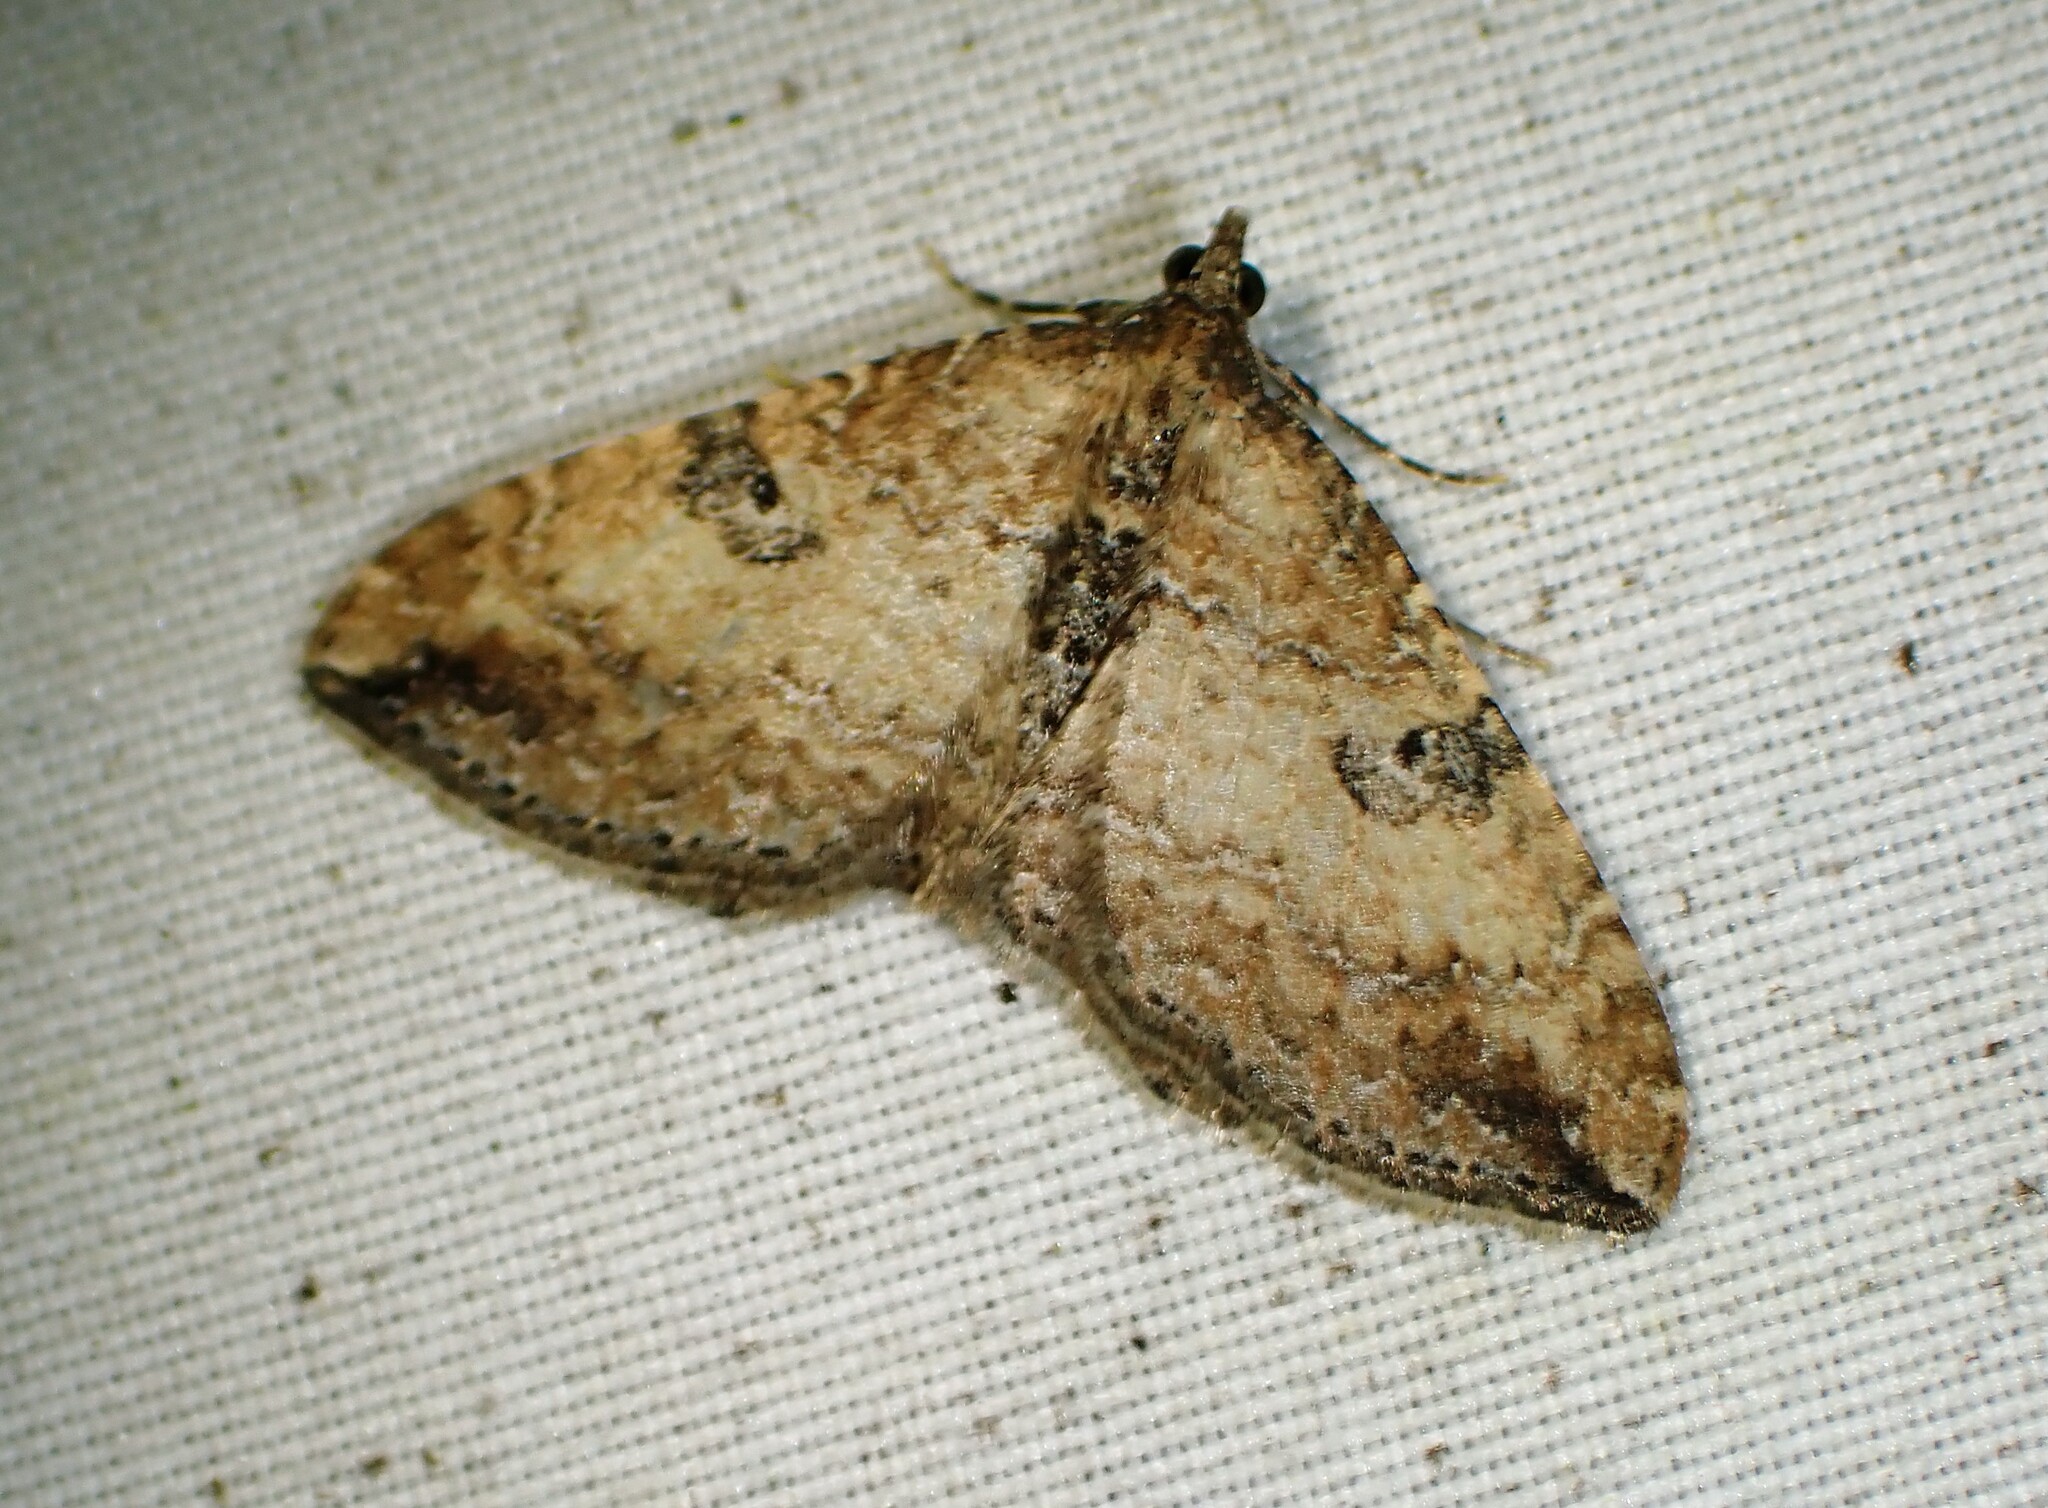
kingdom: Animalia
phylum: Arthropoda
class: Insecta
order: Lepidoptera
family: Geometridae
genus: Orthonama
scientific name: Orthonama obstipata
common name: The gem
